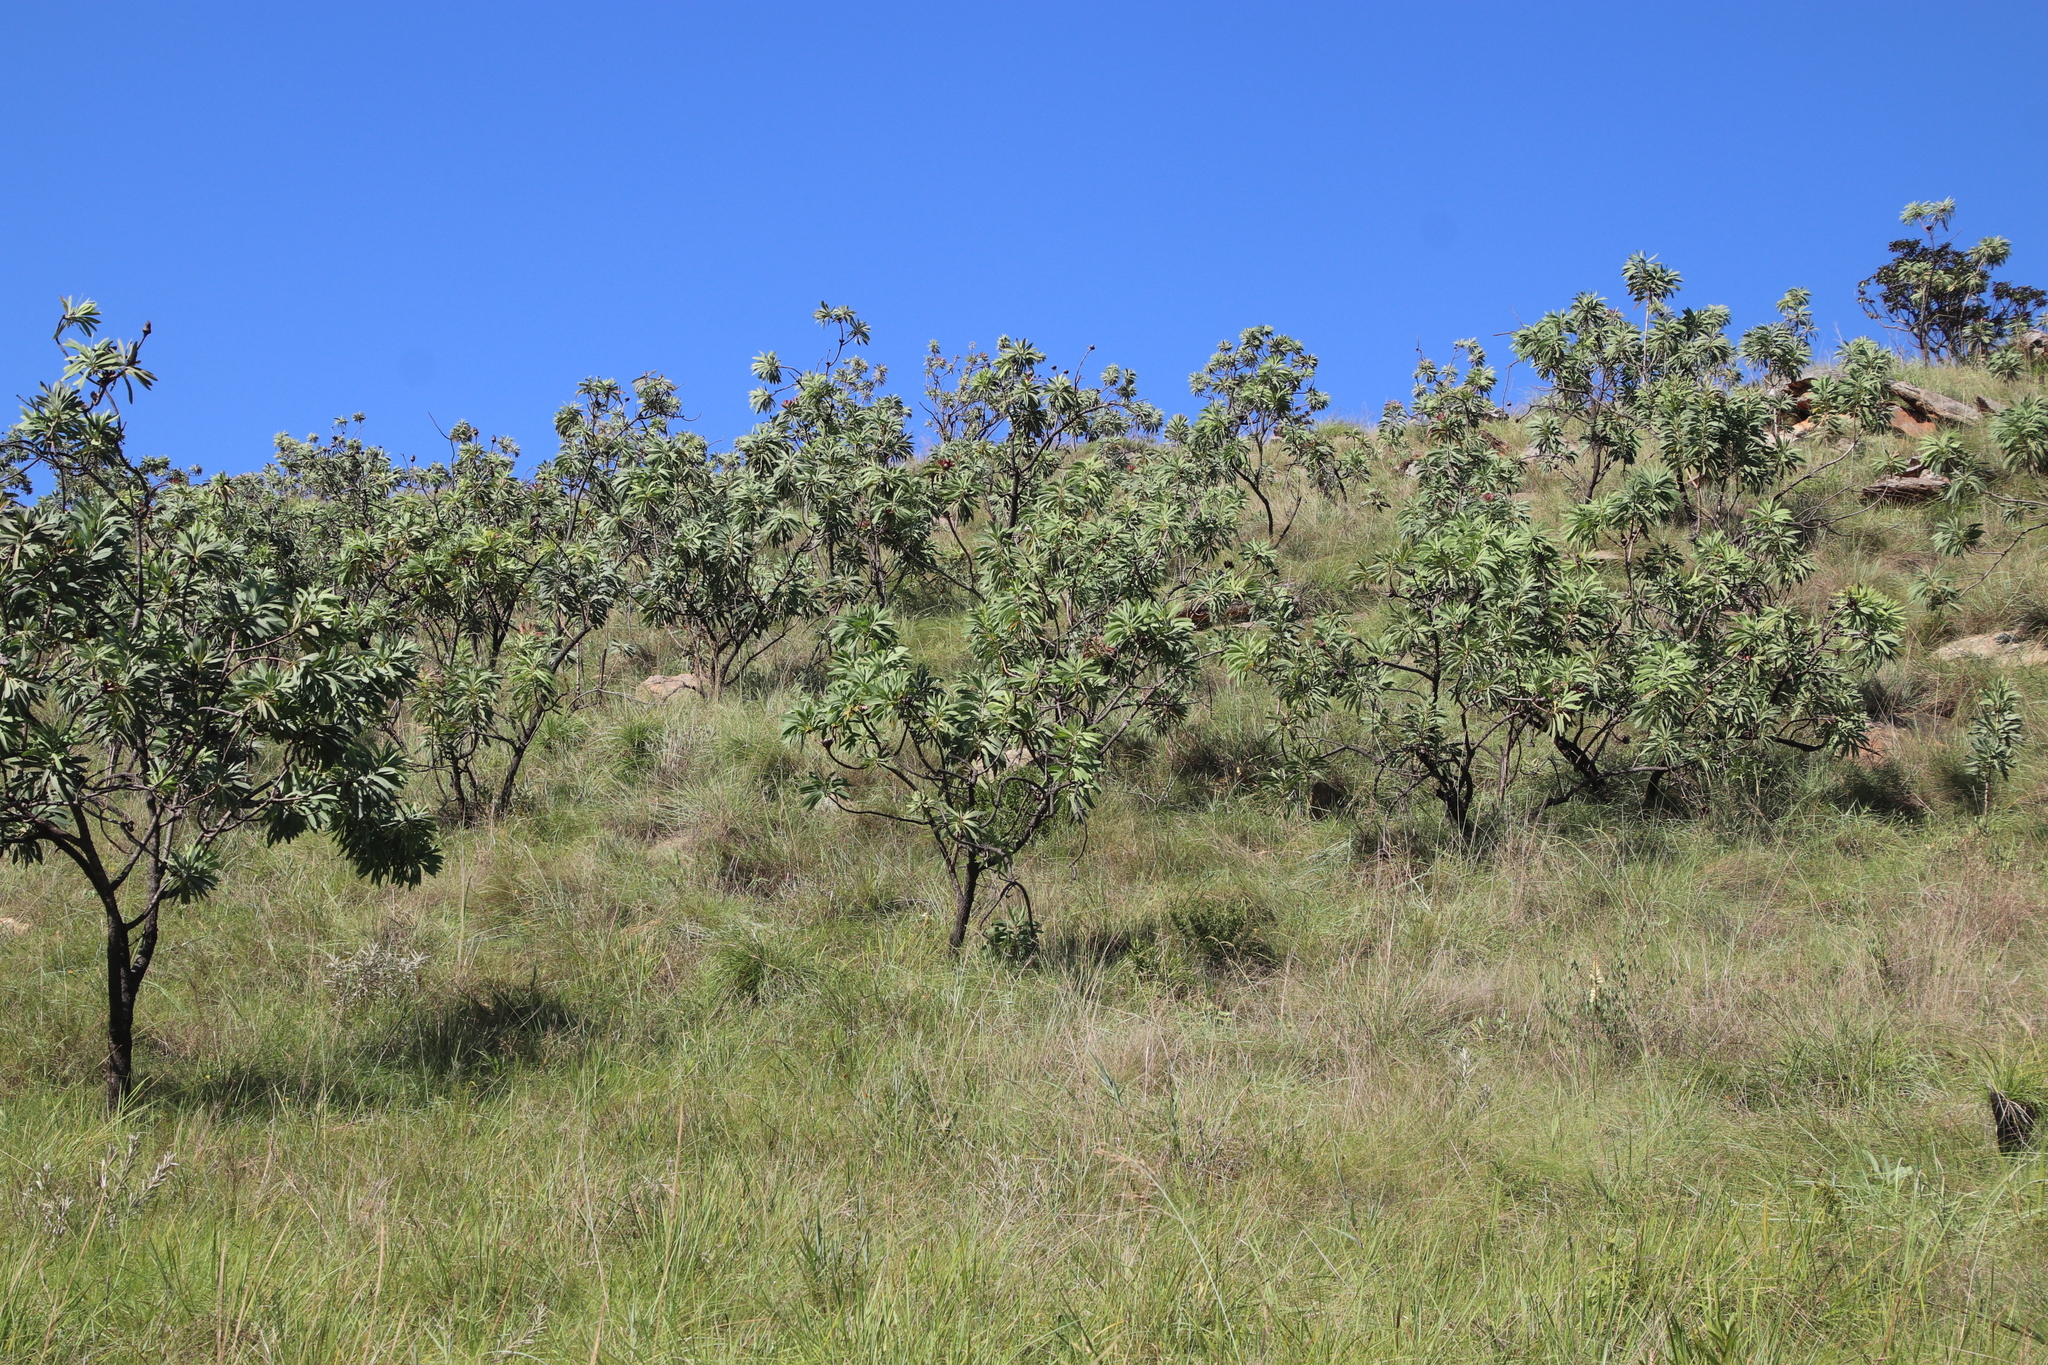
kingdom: Plantae
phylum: Tracheophyta
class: Magnoliopsida
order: Proteales
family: Proteaceae
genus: Protea
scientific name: Protea caffra
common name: Common sugarbush
